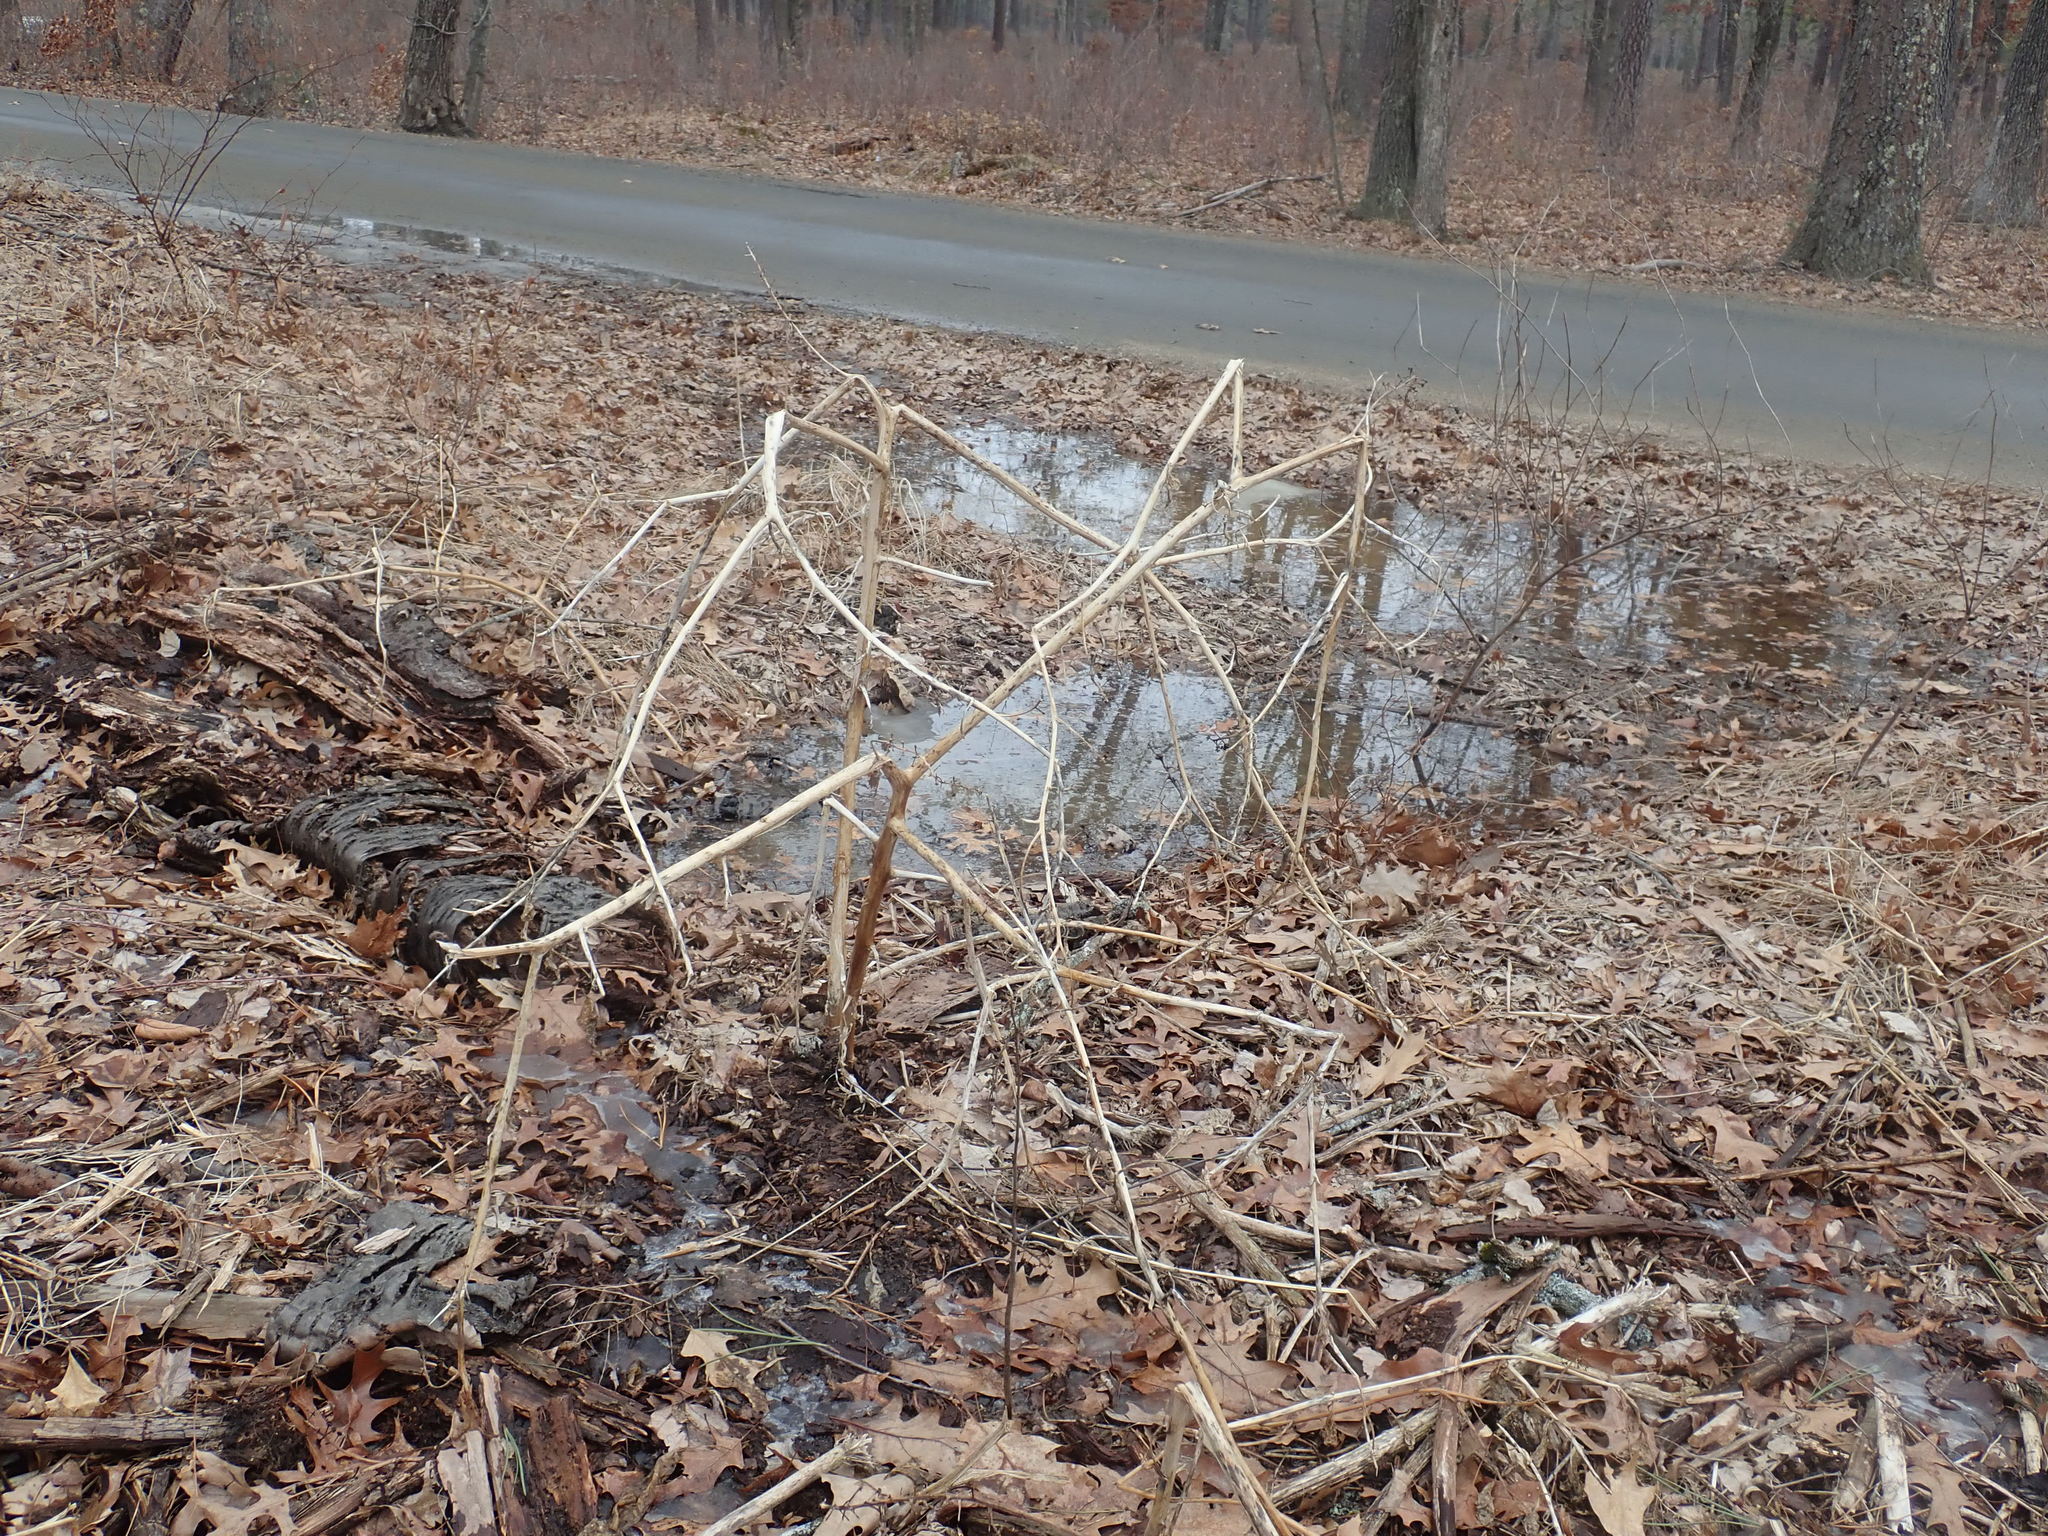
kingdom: Plantae
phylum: Tracheophyta
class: Magnoliopsida
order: Caryophyllales
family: Phytolaccaceae
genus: Phytolacca
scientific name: Phytolacca americana
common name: American pokeweed
